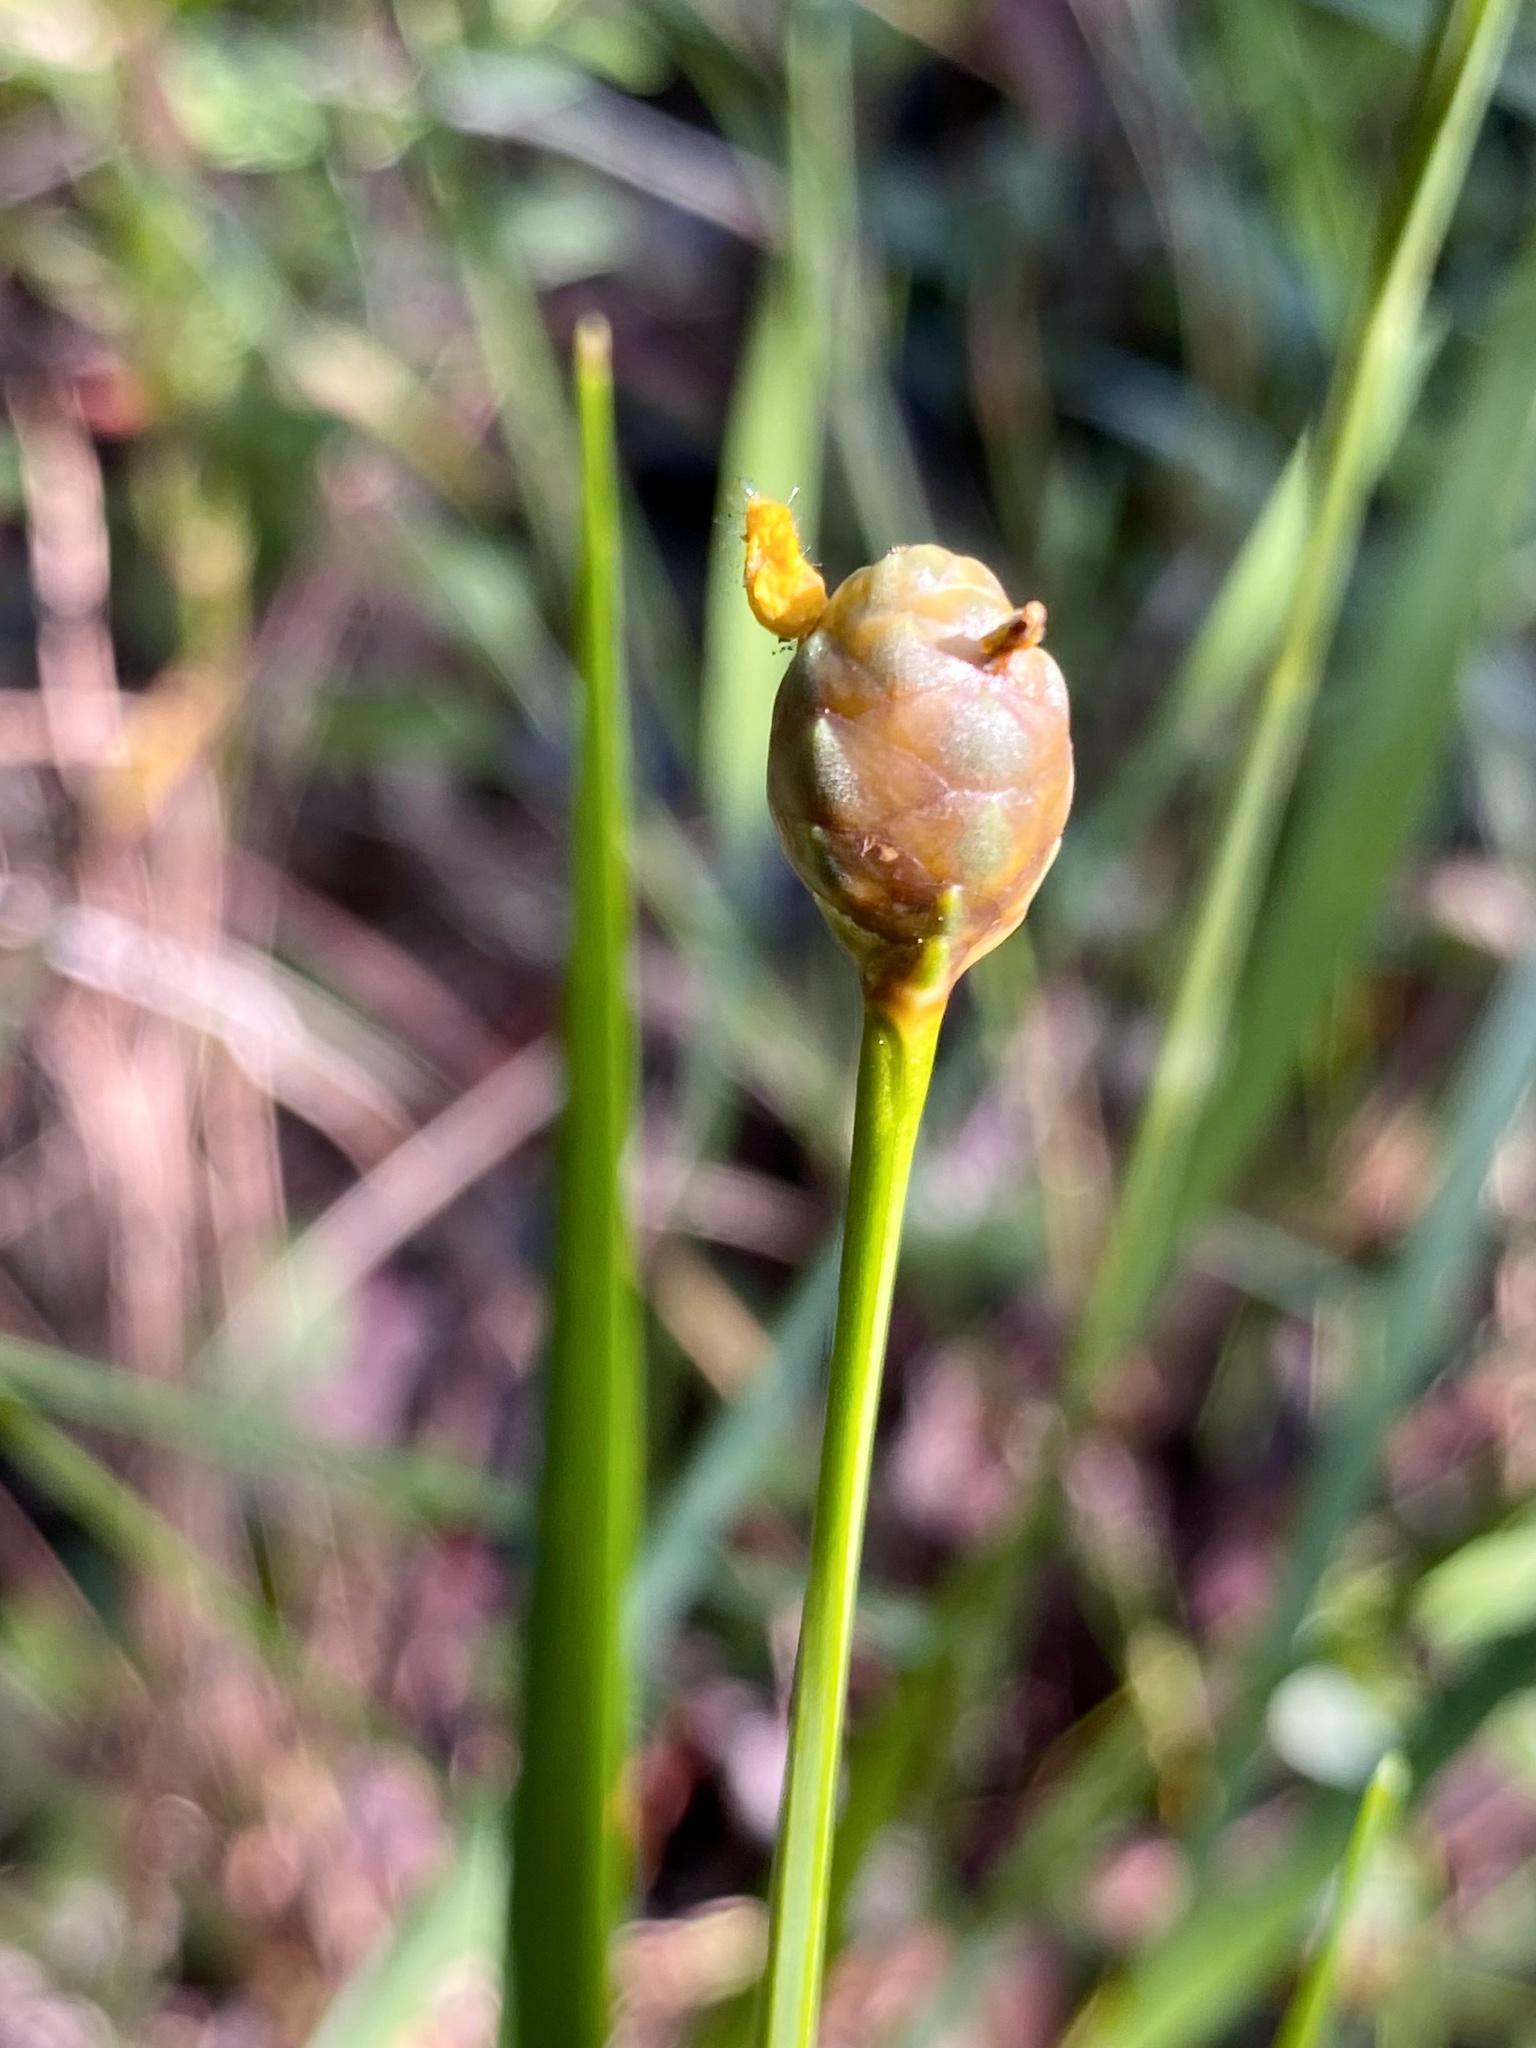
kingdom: Plantae
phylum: Tracheophyta
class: Liliopsida
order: Poales
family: Xyridaceae
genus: Xyris
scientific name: Xyris platylepis
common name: Tall yelloweyed grass
